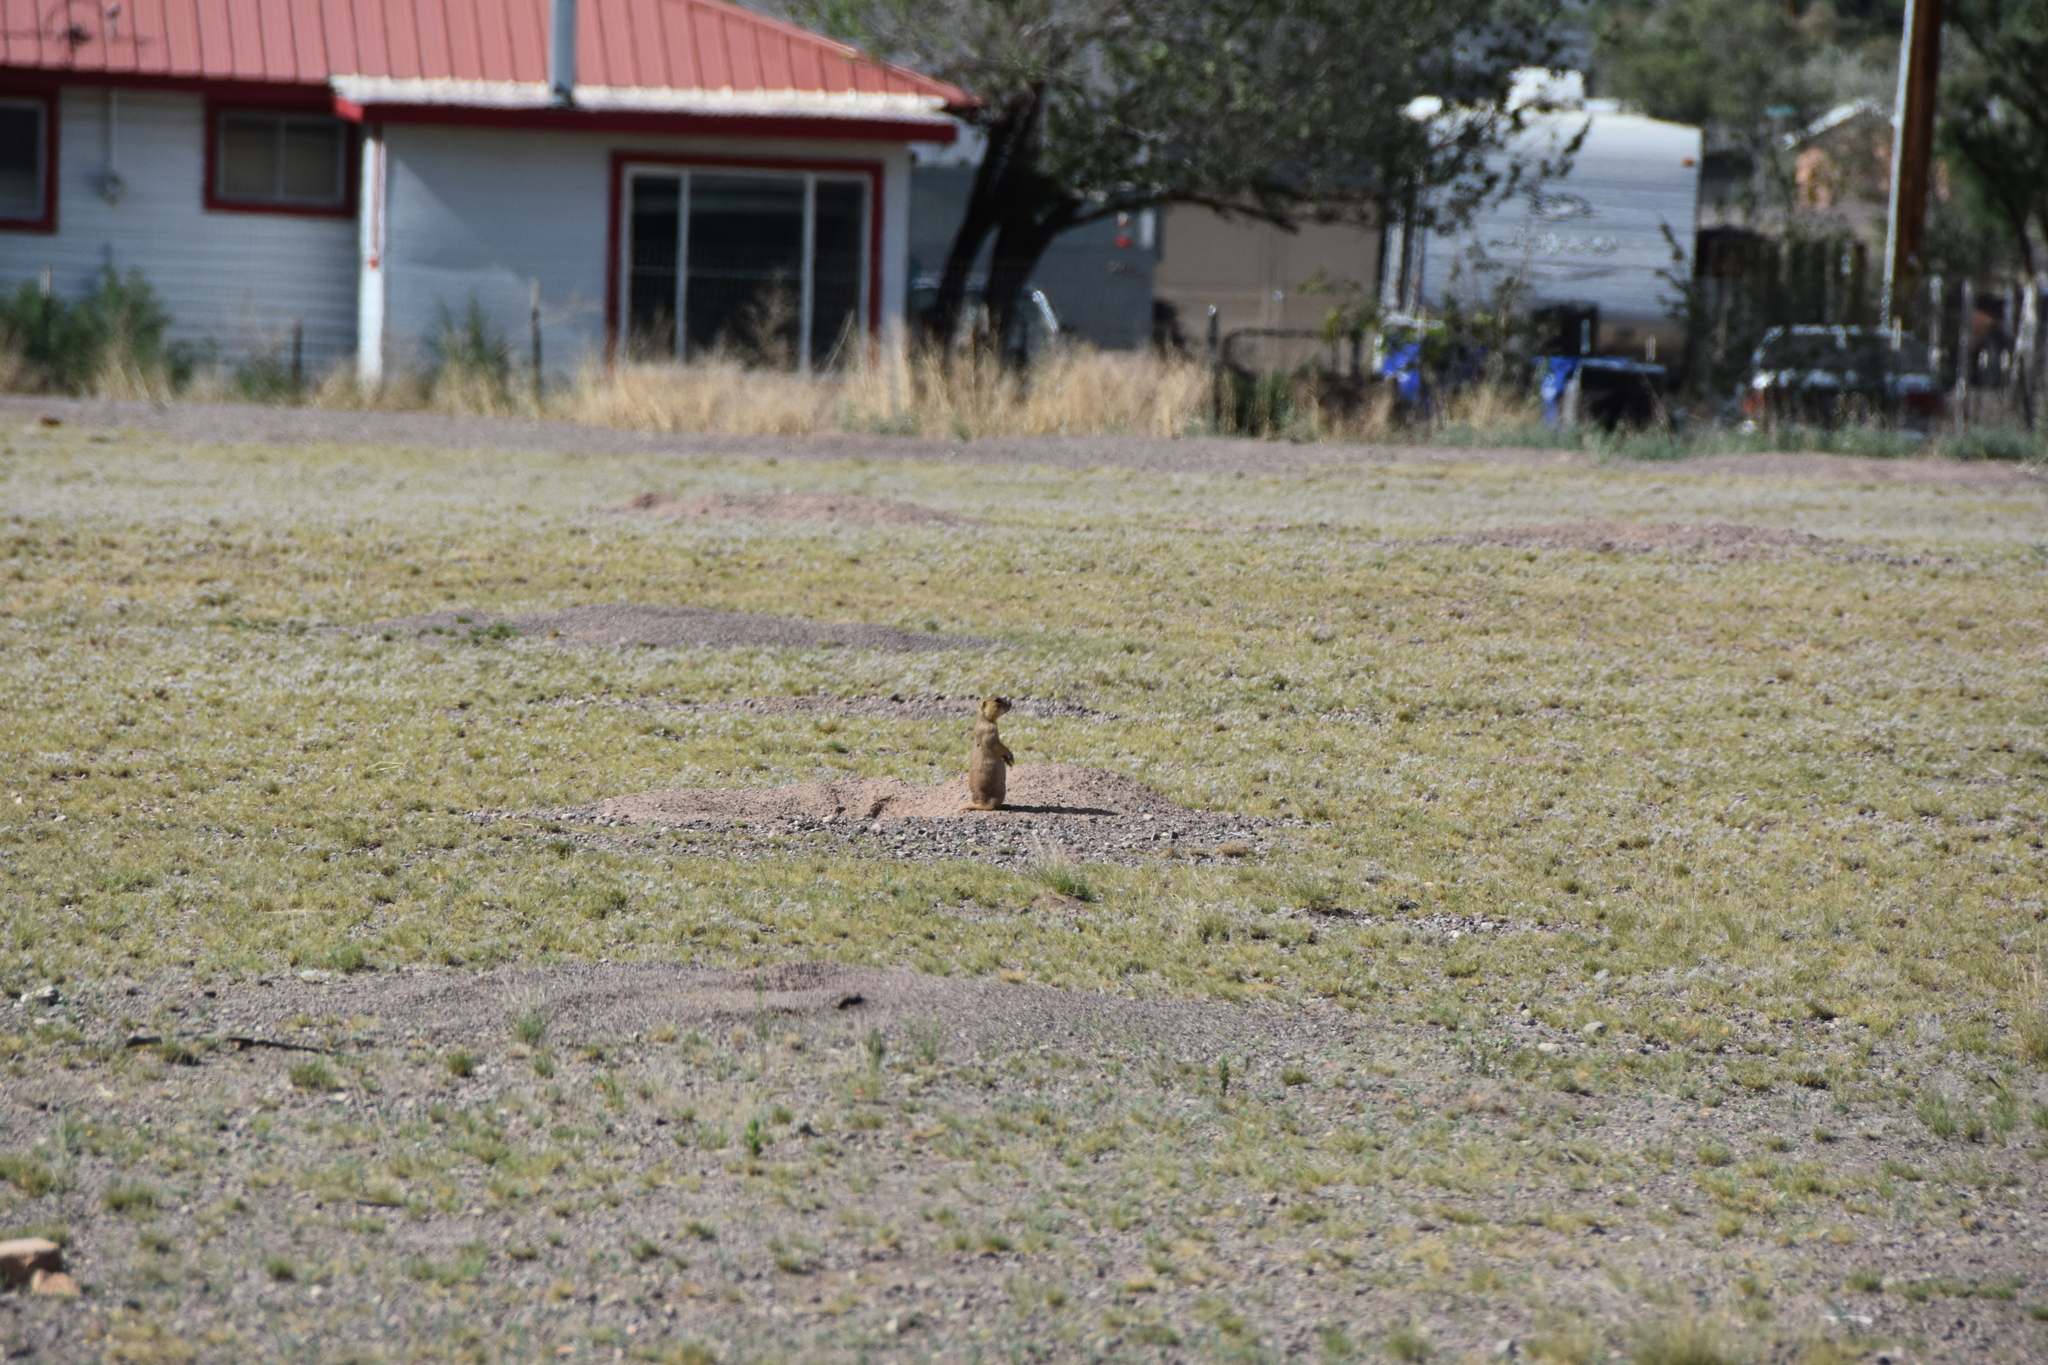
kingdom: Animalia
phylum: Chordata
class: Mammalia
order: Rodentia
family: Sciuridae
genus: Cynomys
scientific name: Cynomys gunnisoni
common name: Gunnison's prairie dog
